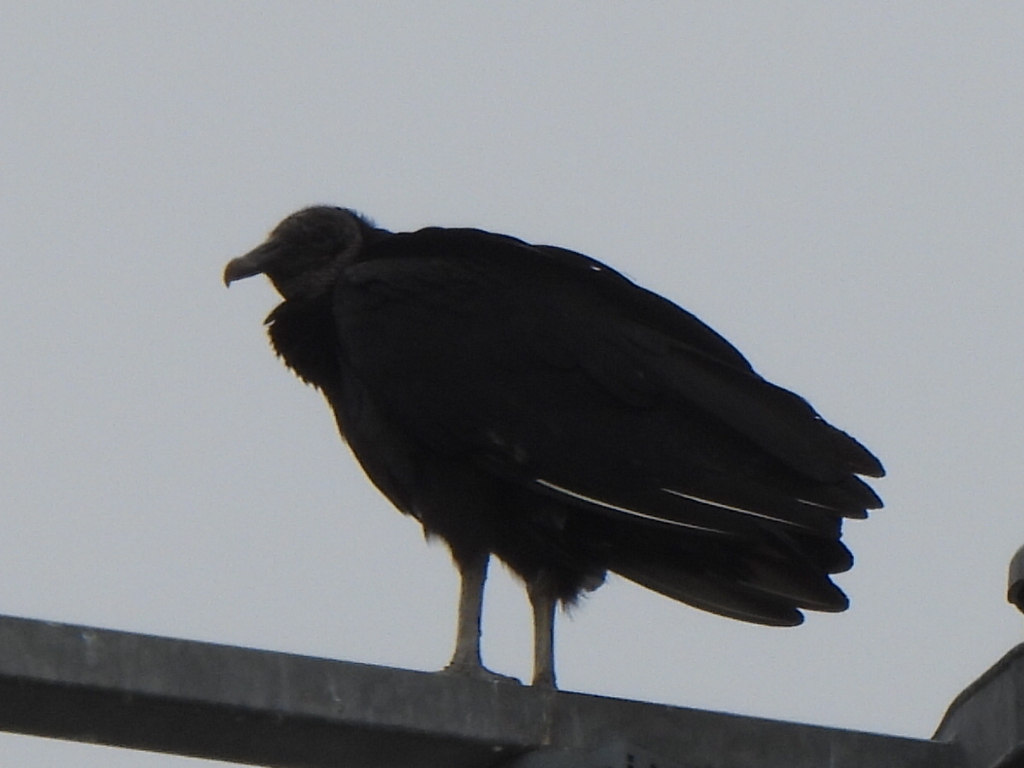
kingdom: Animalia
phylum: Chordata
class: Aves
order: Accipitriformes
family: Cathartidae
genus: Coragyps
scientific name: Coragyps atratus
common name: Black vulture
